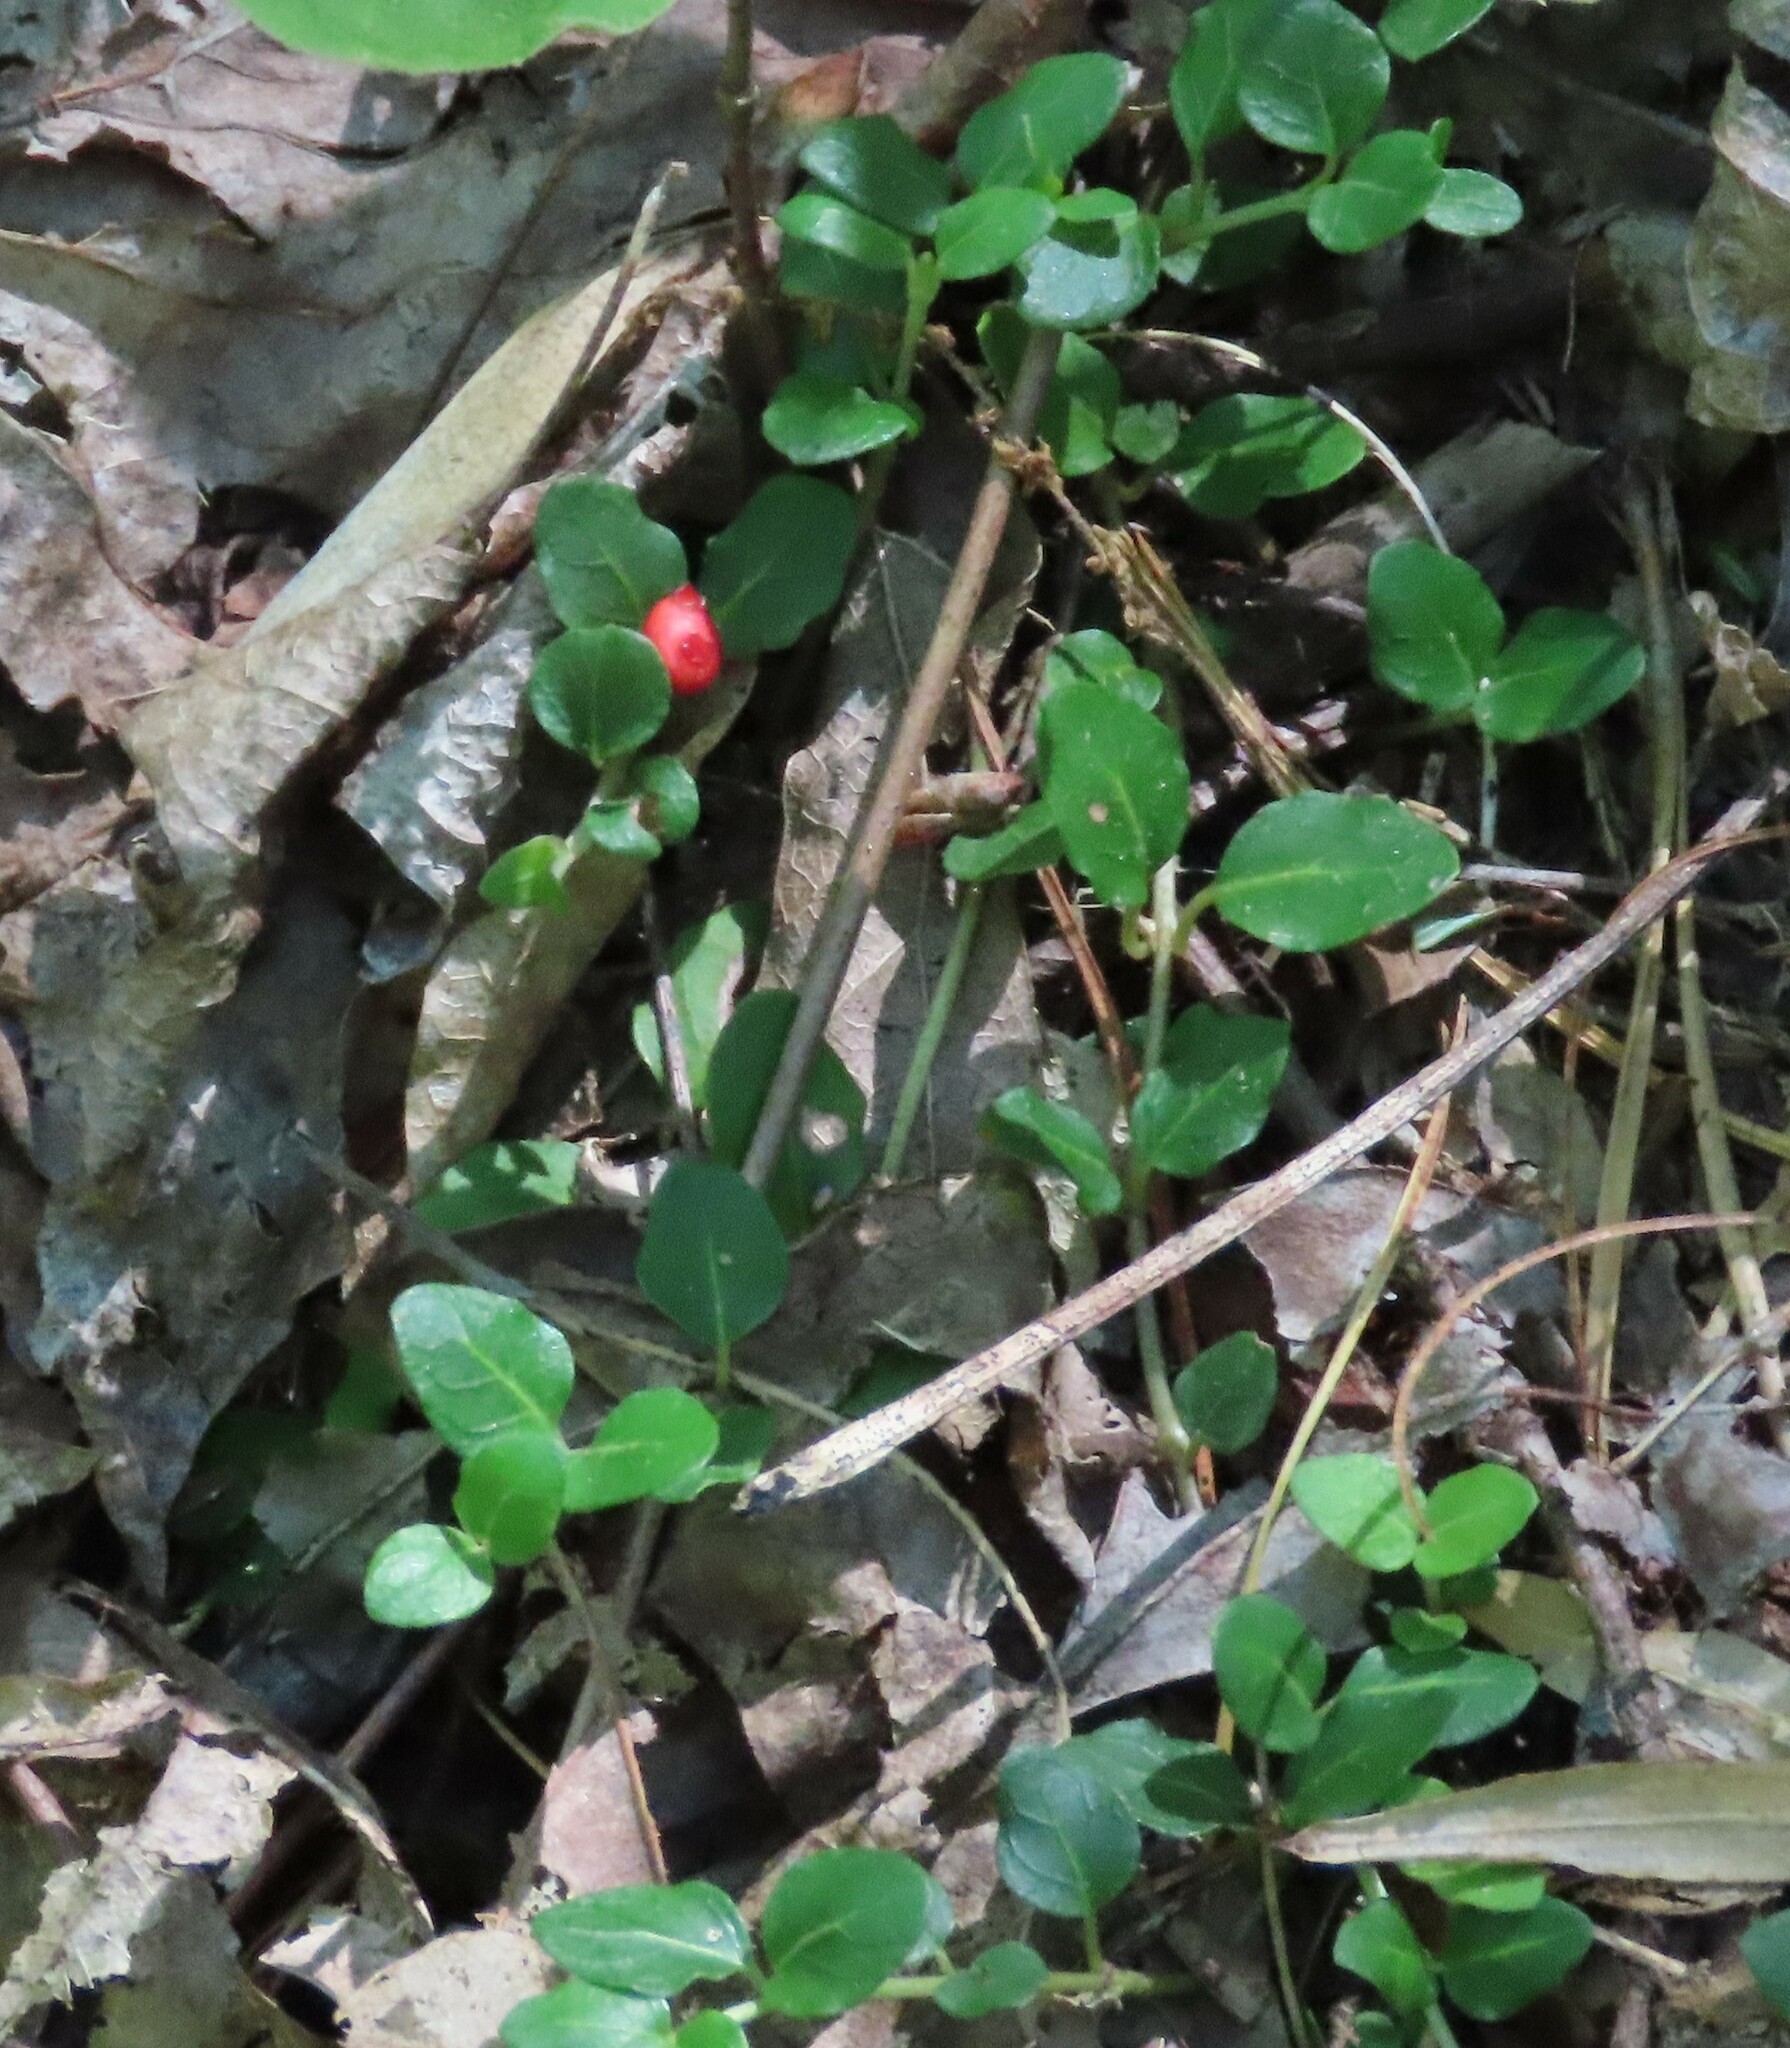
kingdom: Plantae
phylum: Tracheophyta
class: Magnoliopsida
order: Gentianales
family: Rubiaceae
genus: Mitchella
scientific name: Mitchella repens
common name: Partridge-berry
